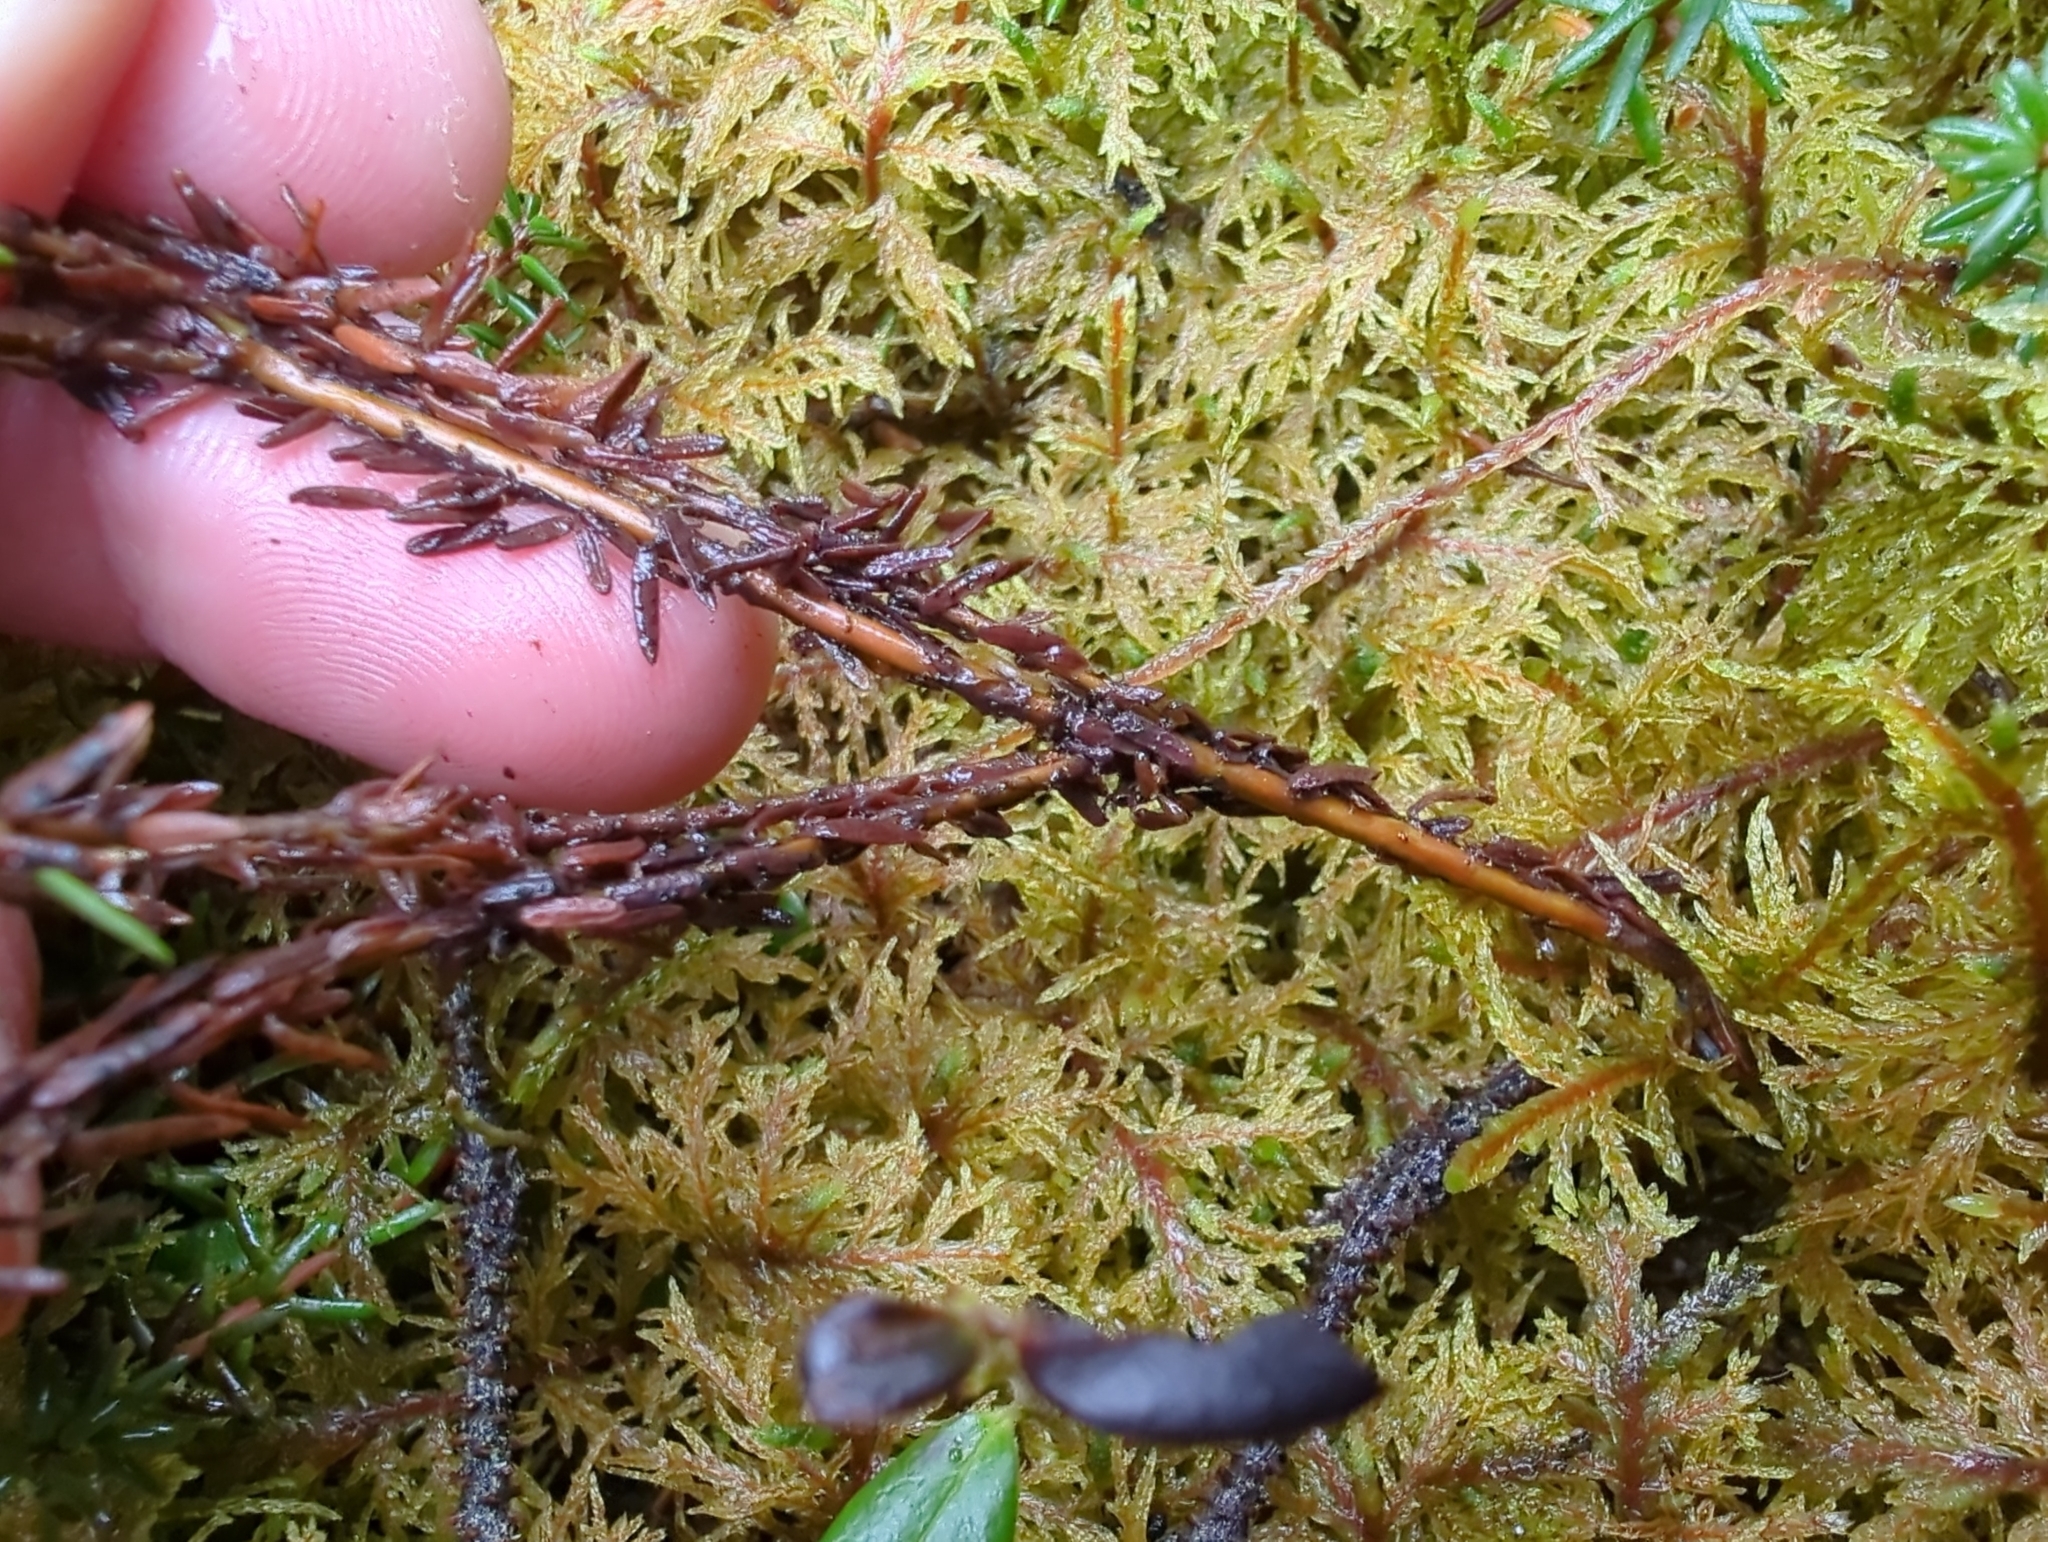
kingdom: Plantae
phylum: Tracheophyta
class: Magnoliopsida
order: Ericales
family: Ericaceae
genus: Empetrum
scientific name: Empetrum nigrum
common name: Black crowberry
